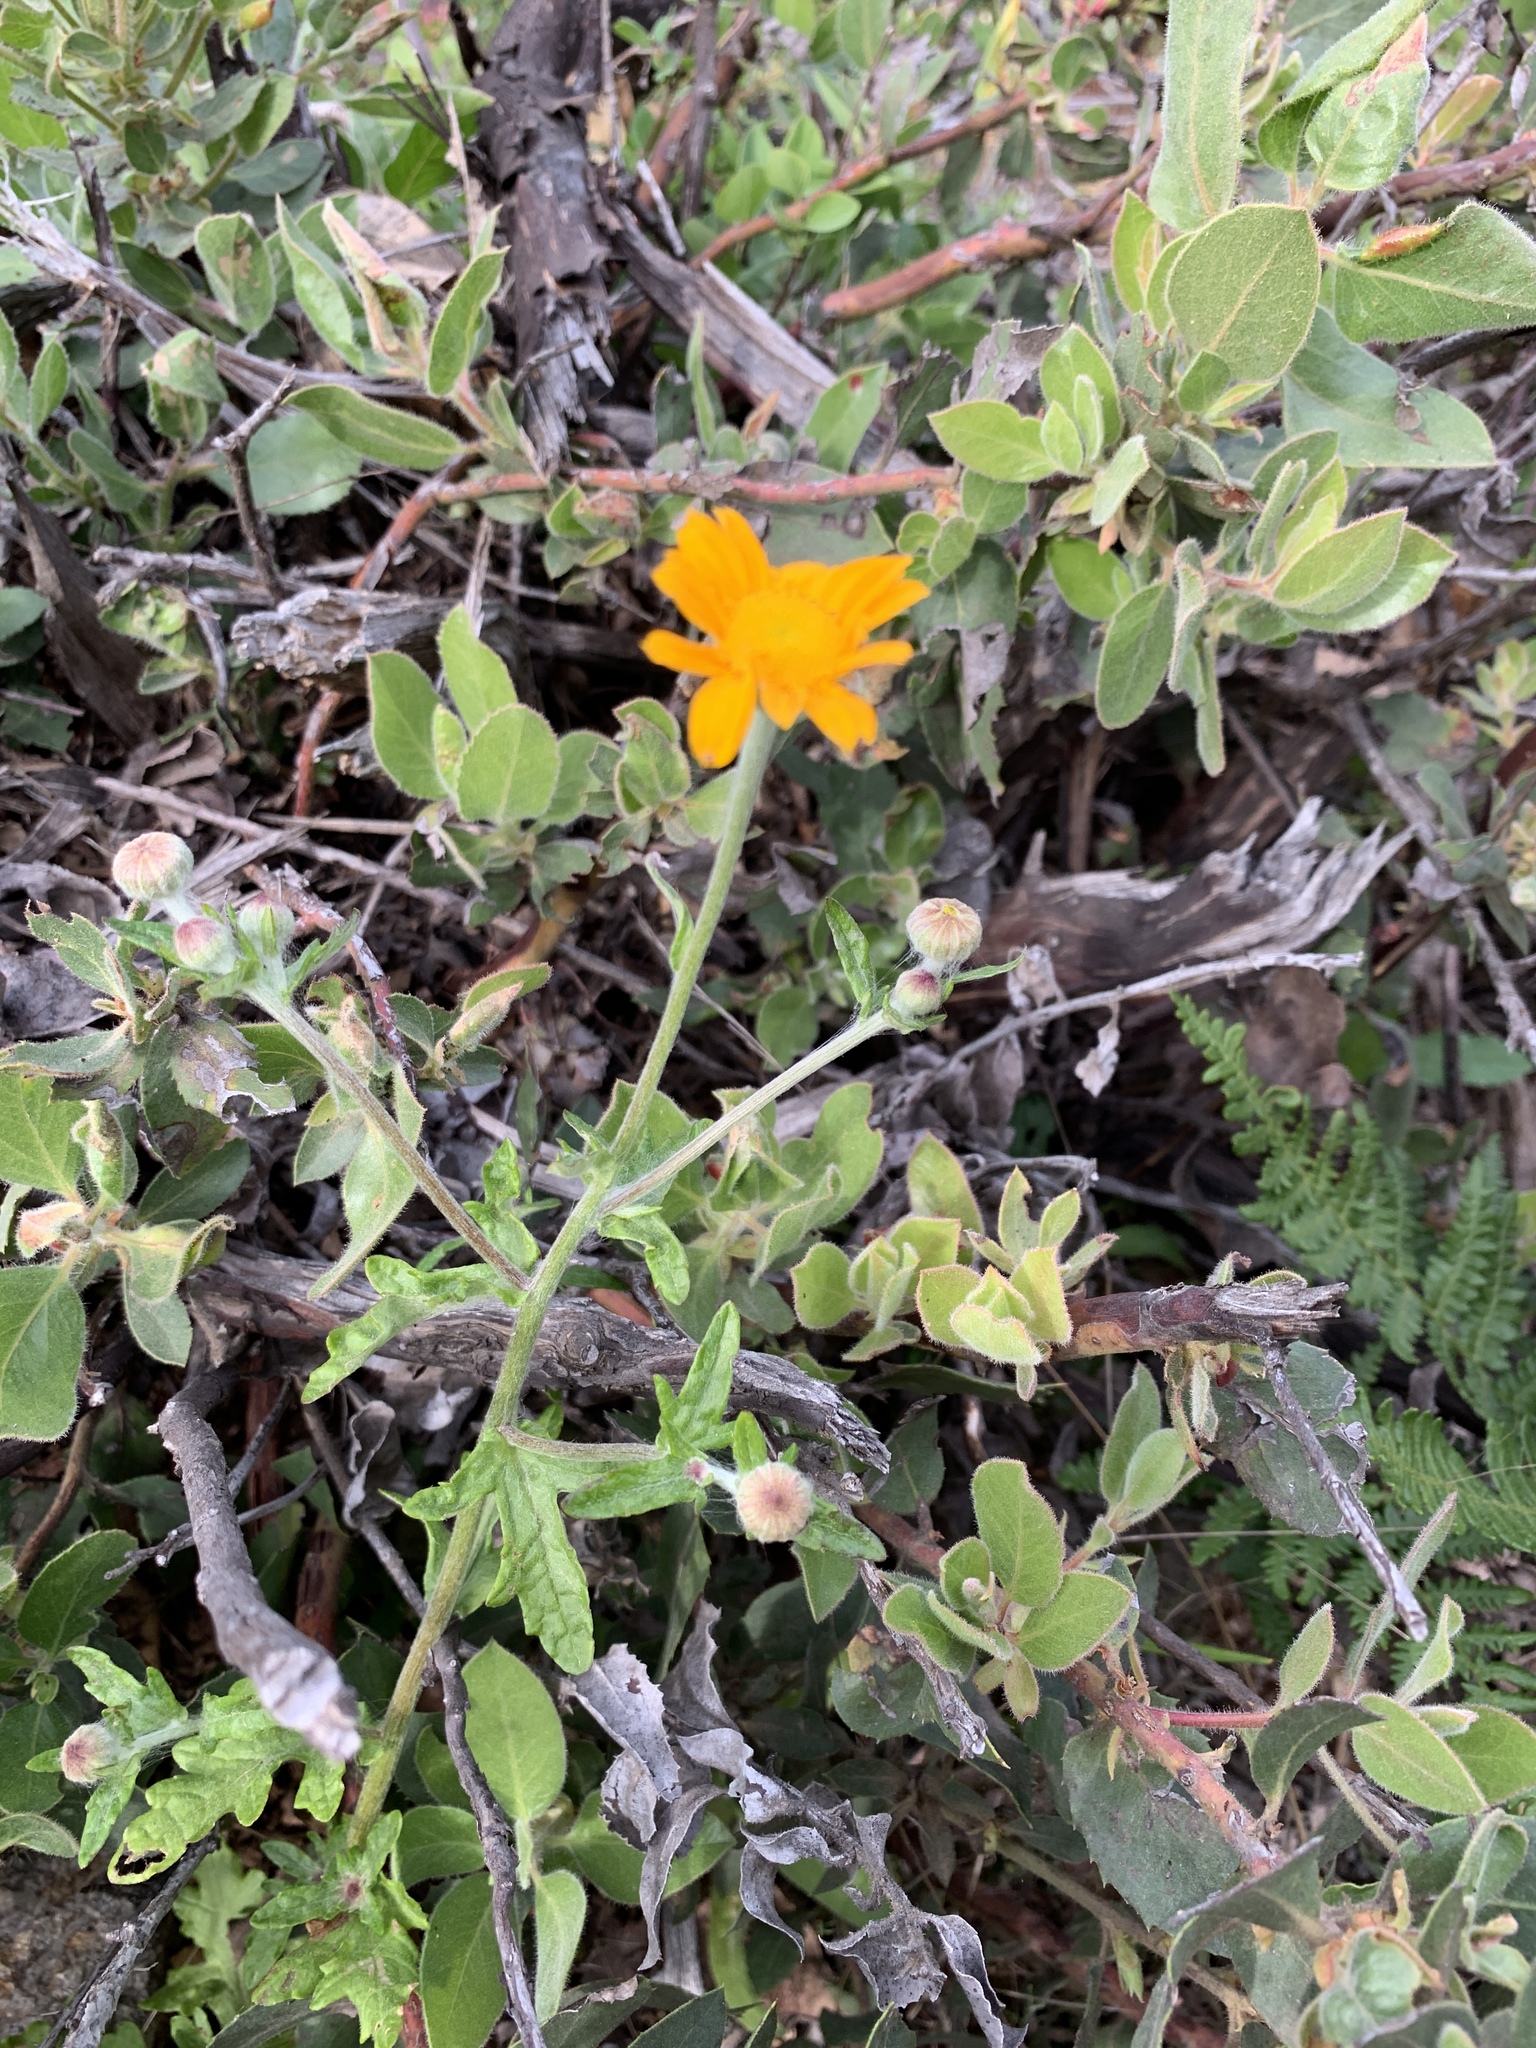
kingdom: Plantae
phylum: Tracheophyta
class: Magnoliopsida
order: Asterales
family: Asteraceae
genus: Eriophyllum
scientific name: Eriophyllum lanatum
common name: Common woolly-sunflower
